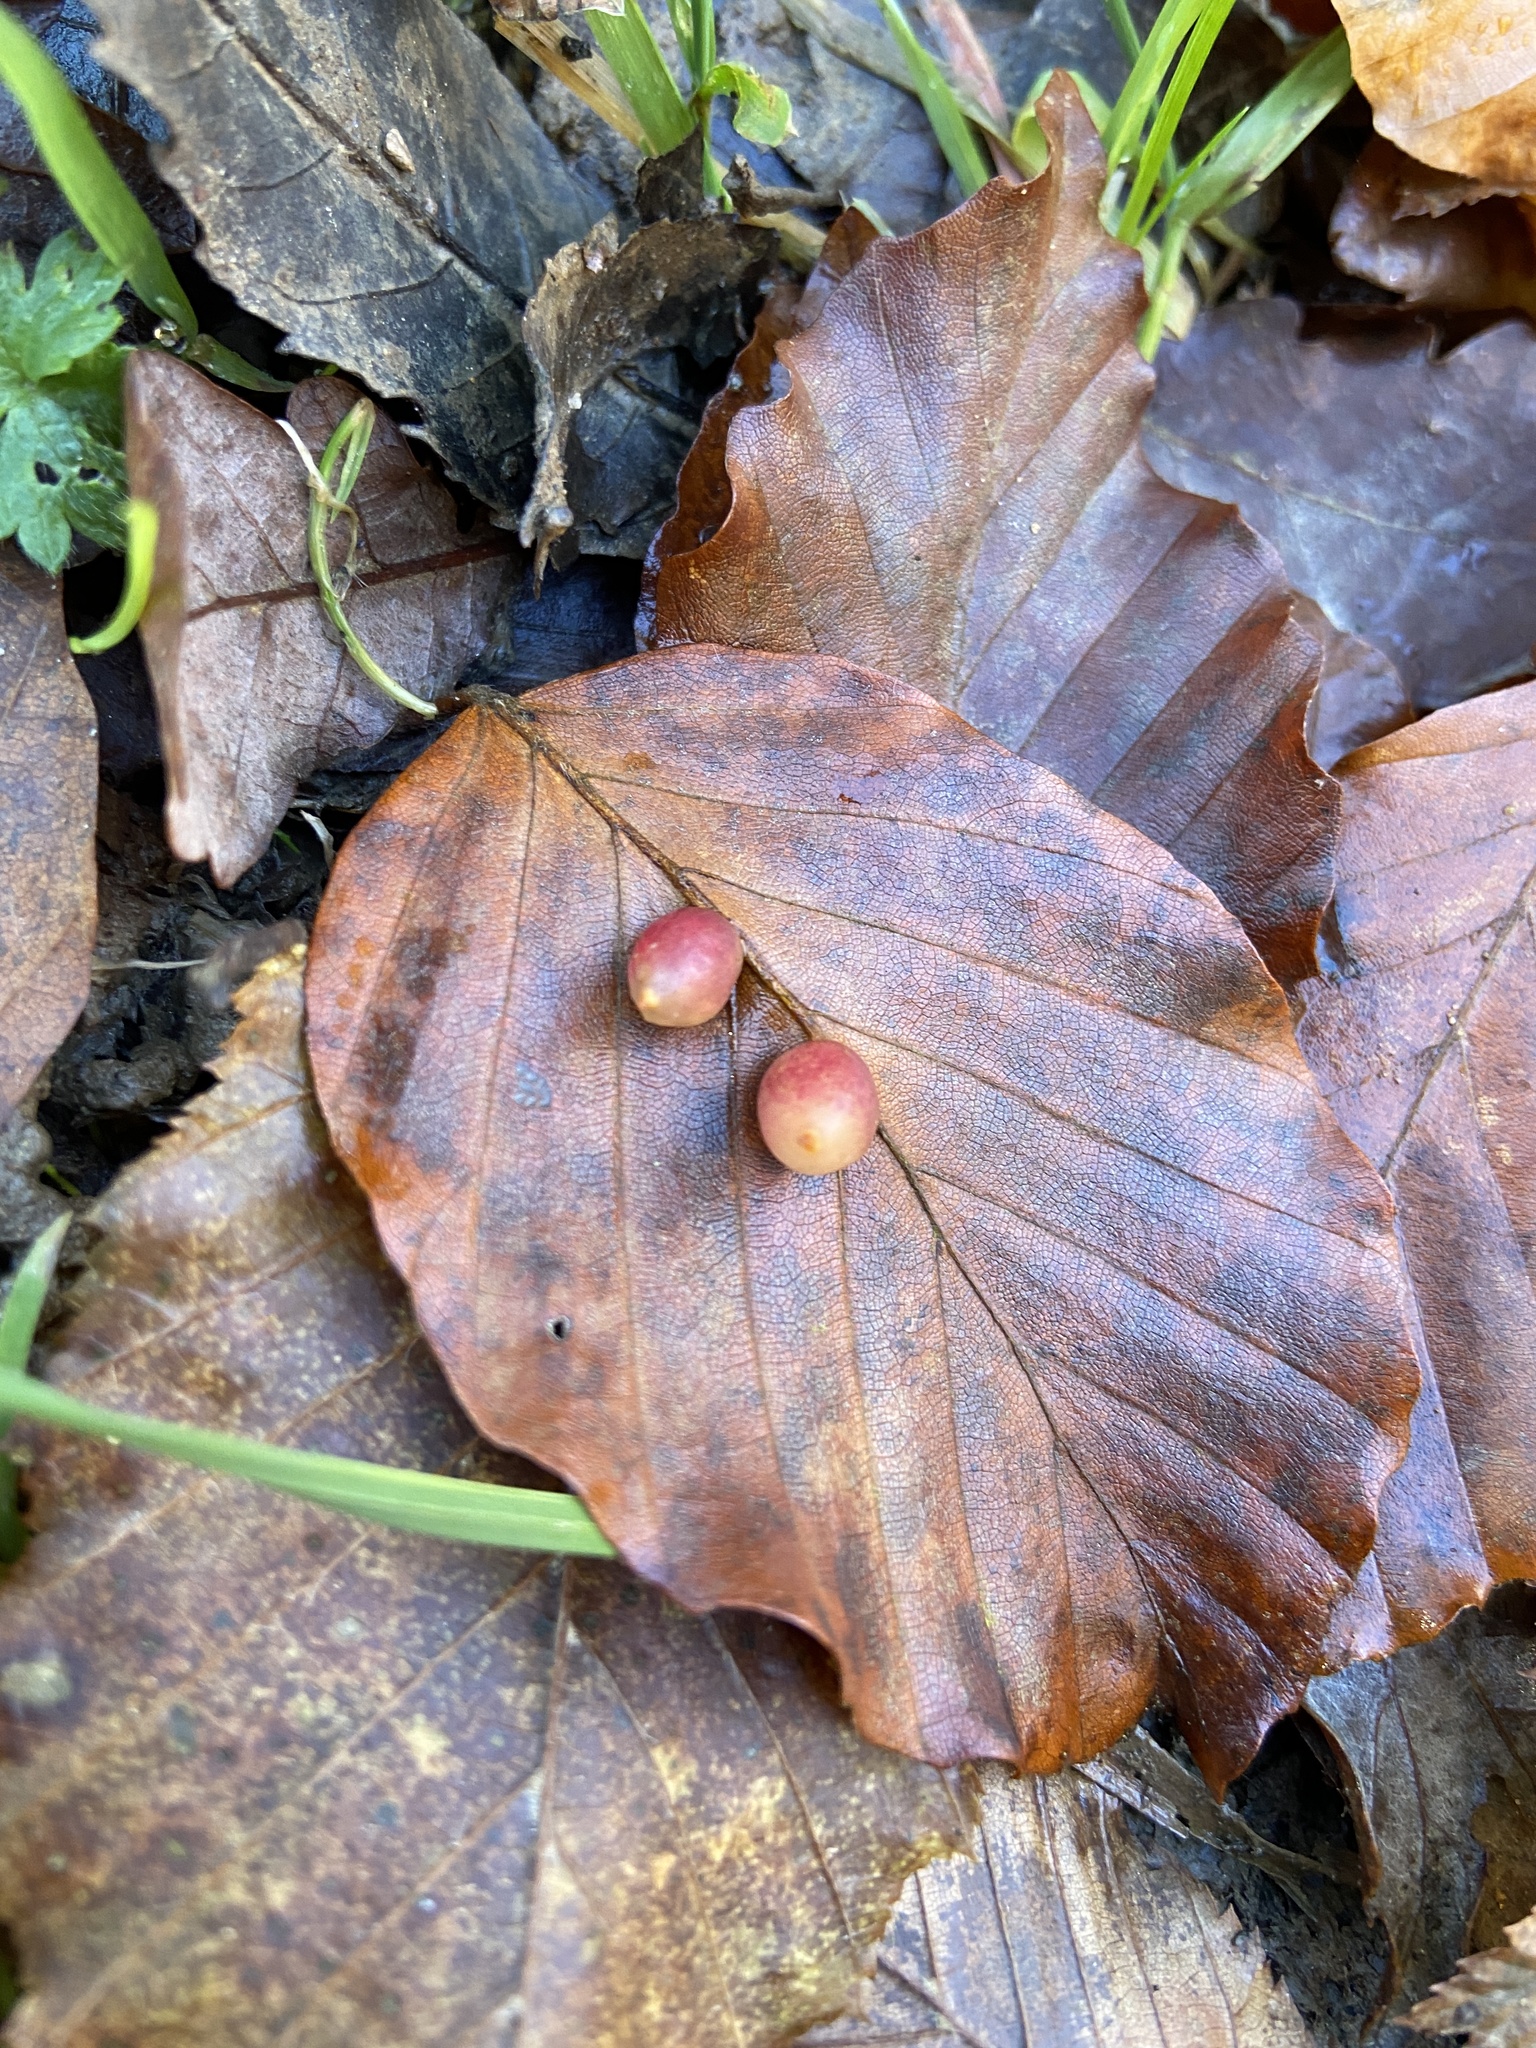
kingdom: Animalia
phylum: Arthropoda
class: Insecta
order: Diptera
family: Cecidomyiidae
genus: Mikiola
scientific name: Mikiola fagi
